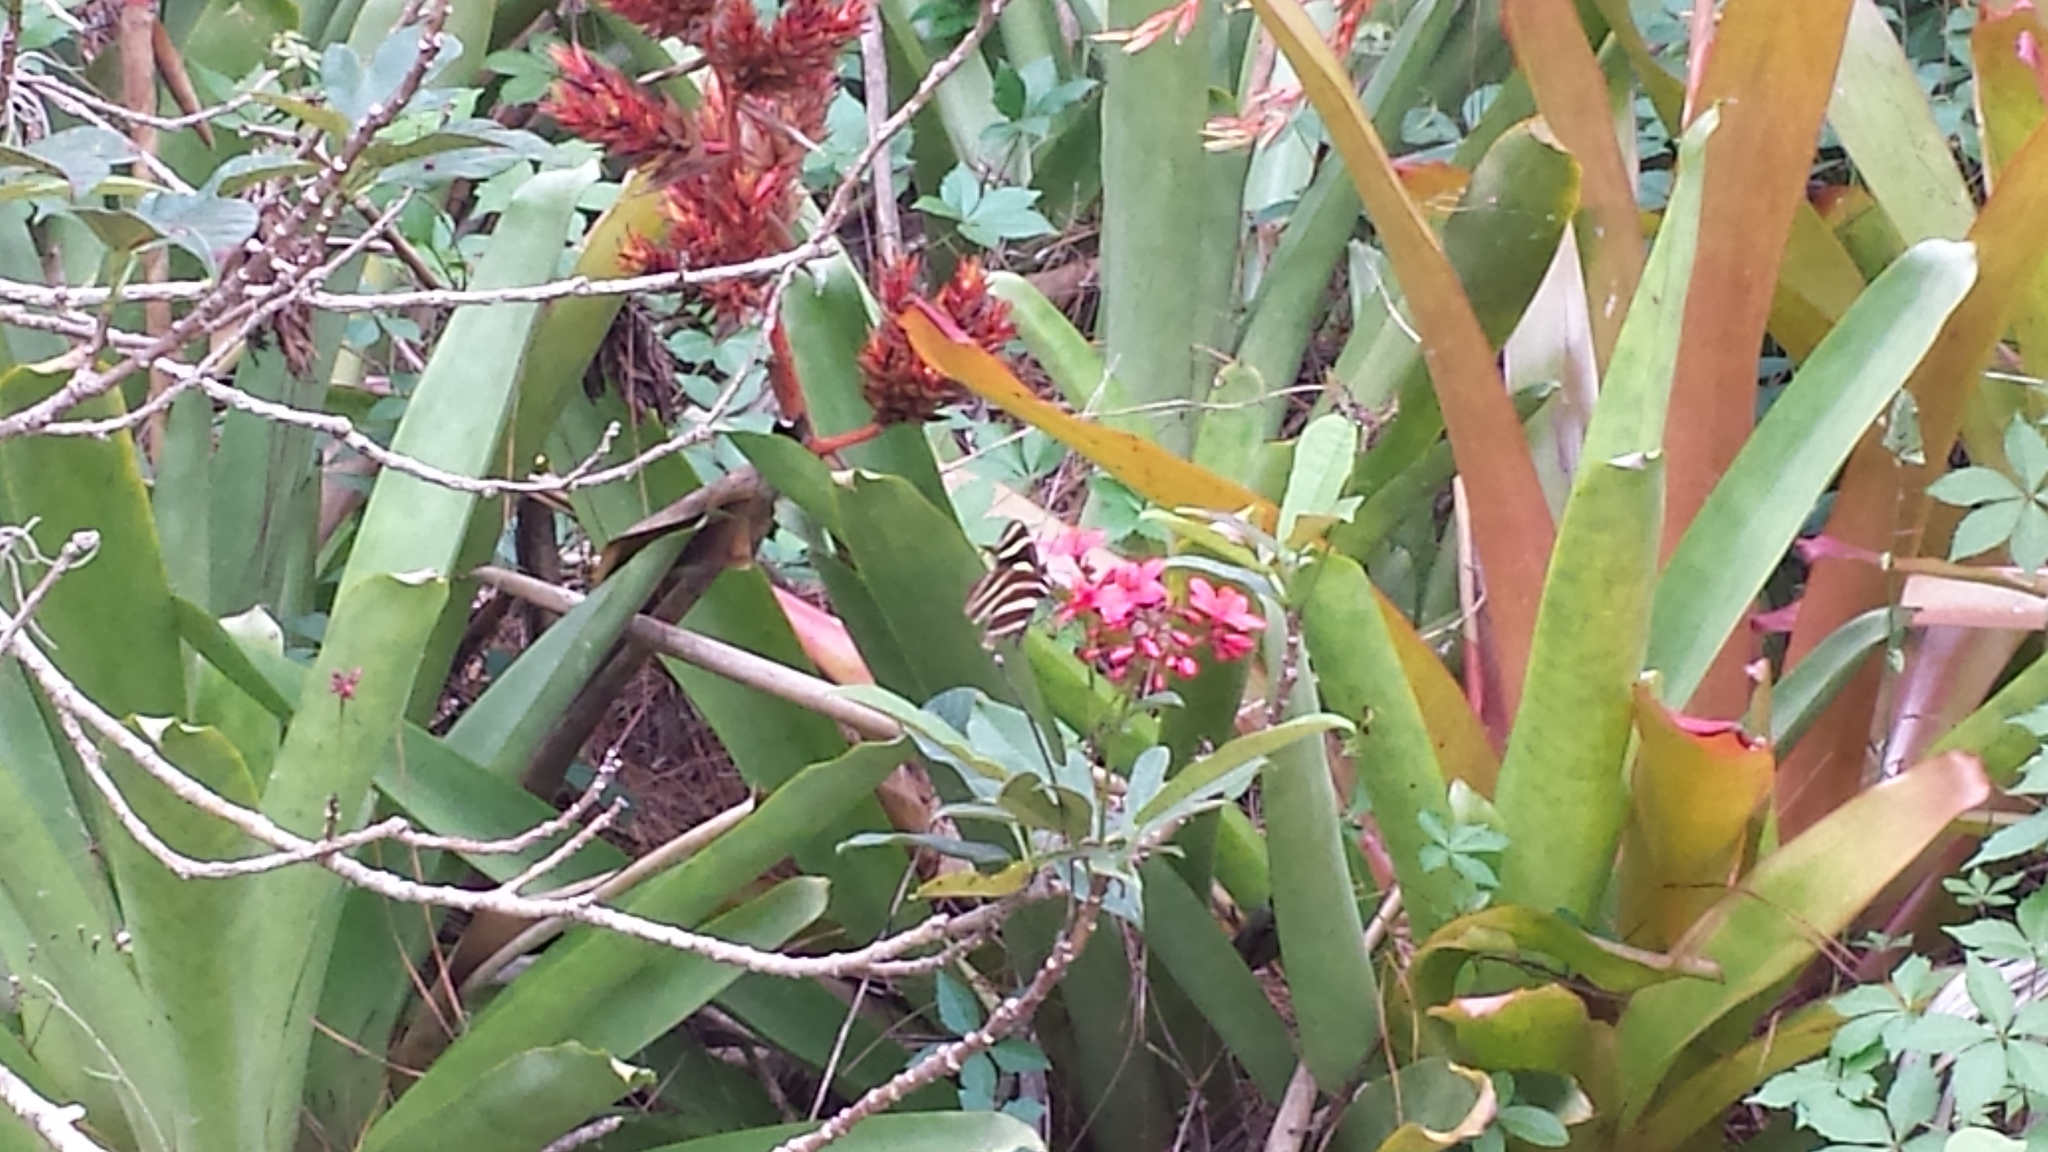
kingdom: Animalia
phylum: Arthropoda
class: Insecta
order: Lepidoptera
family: Nymphalidae
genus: Heliconius
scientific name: Heliconius charithonia
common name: Zebra long wing
